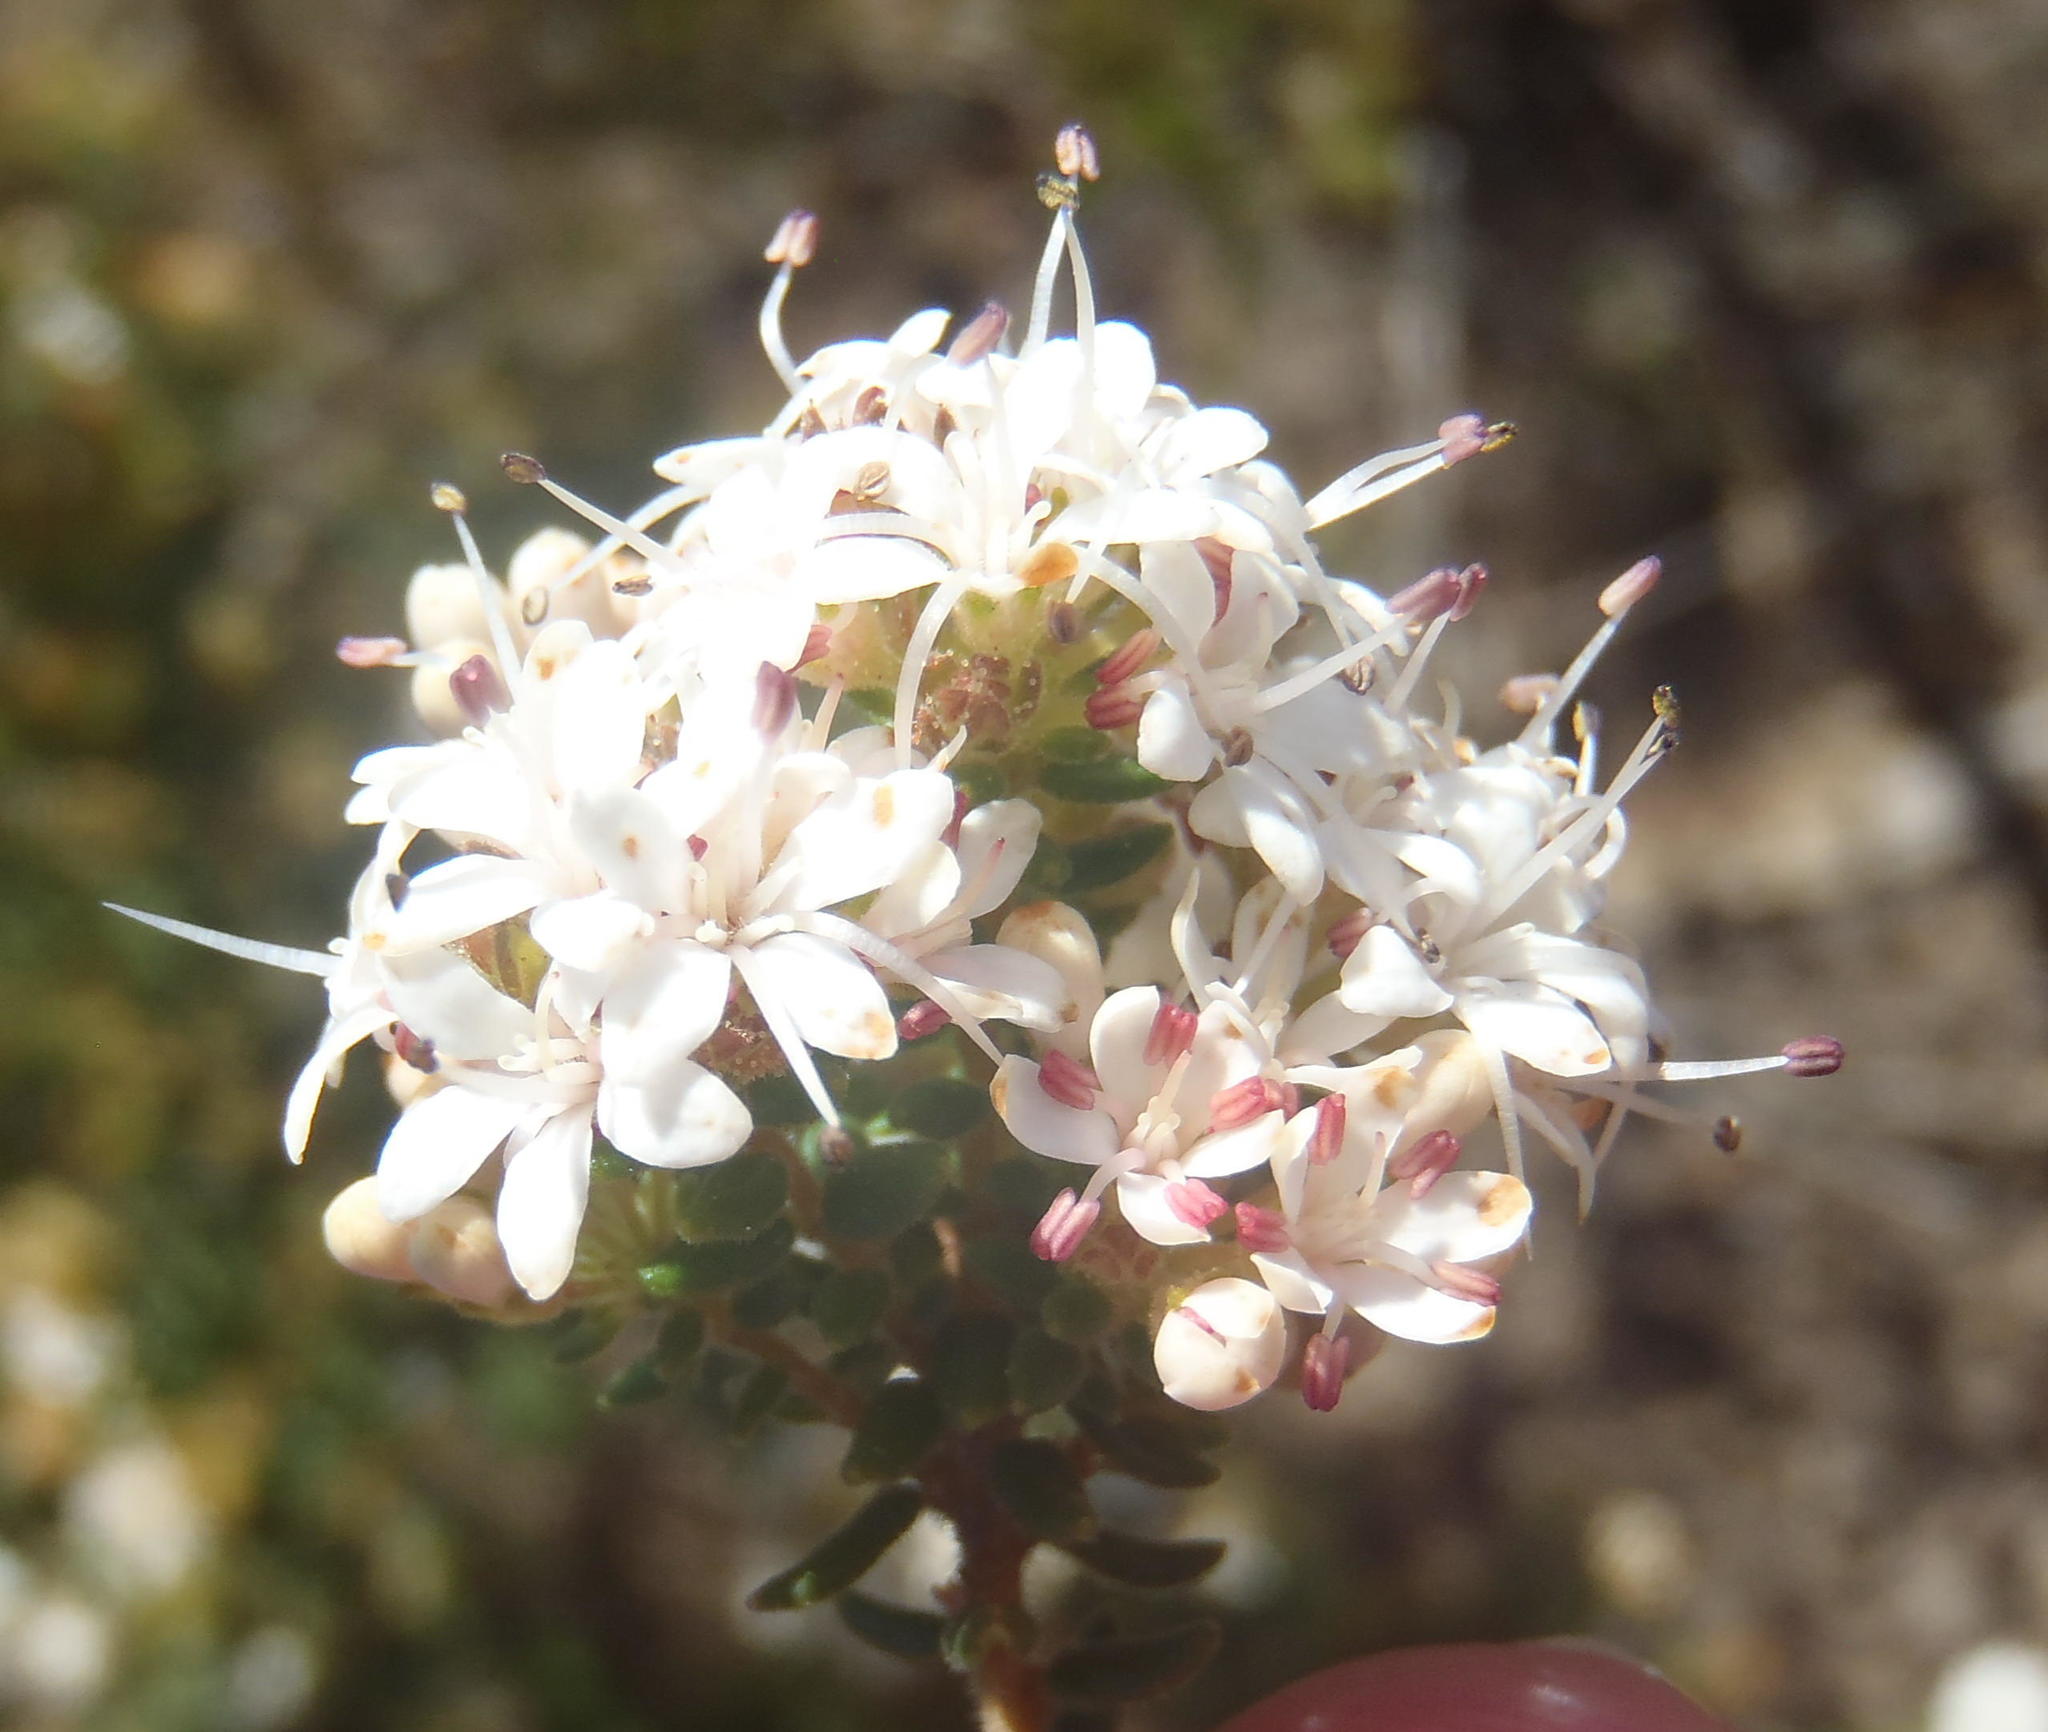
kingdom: Plantae
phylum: Tracheophyta
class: Magnoliopsida
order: Sapindales
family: Rutaceae
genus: Agathosma
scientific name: Agathosma mundtii
